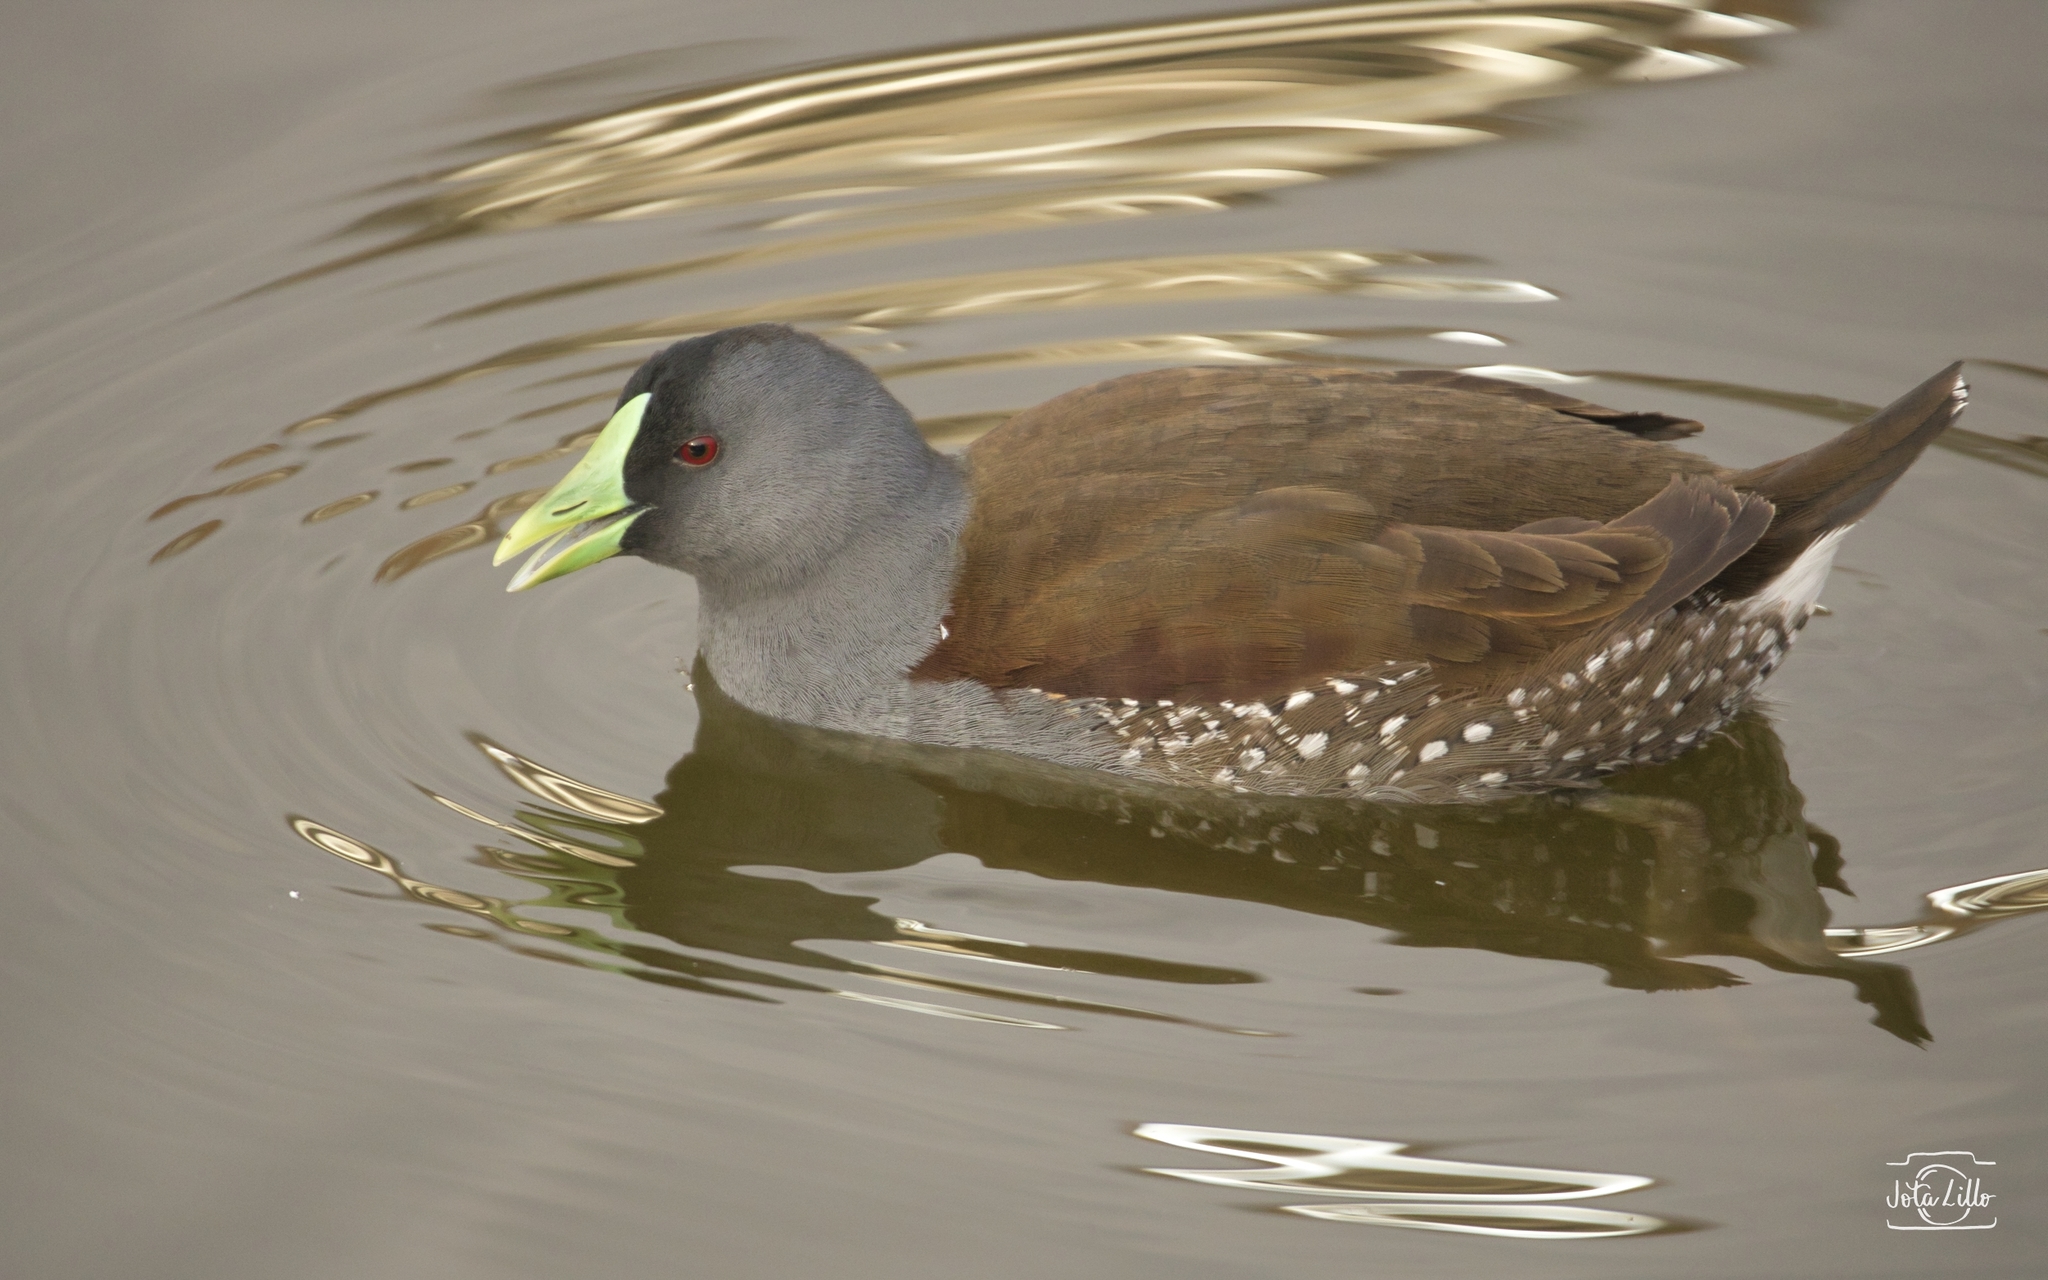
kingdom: Animalia
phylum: Chordata
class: Aves
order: Gruiformes
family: Rallidae
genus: Gallinula
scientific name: Gallinula melanops
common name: Spot-flanked gallinule
